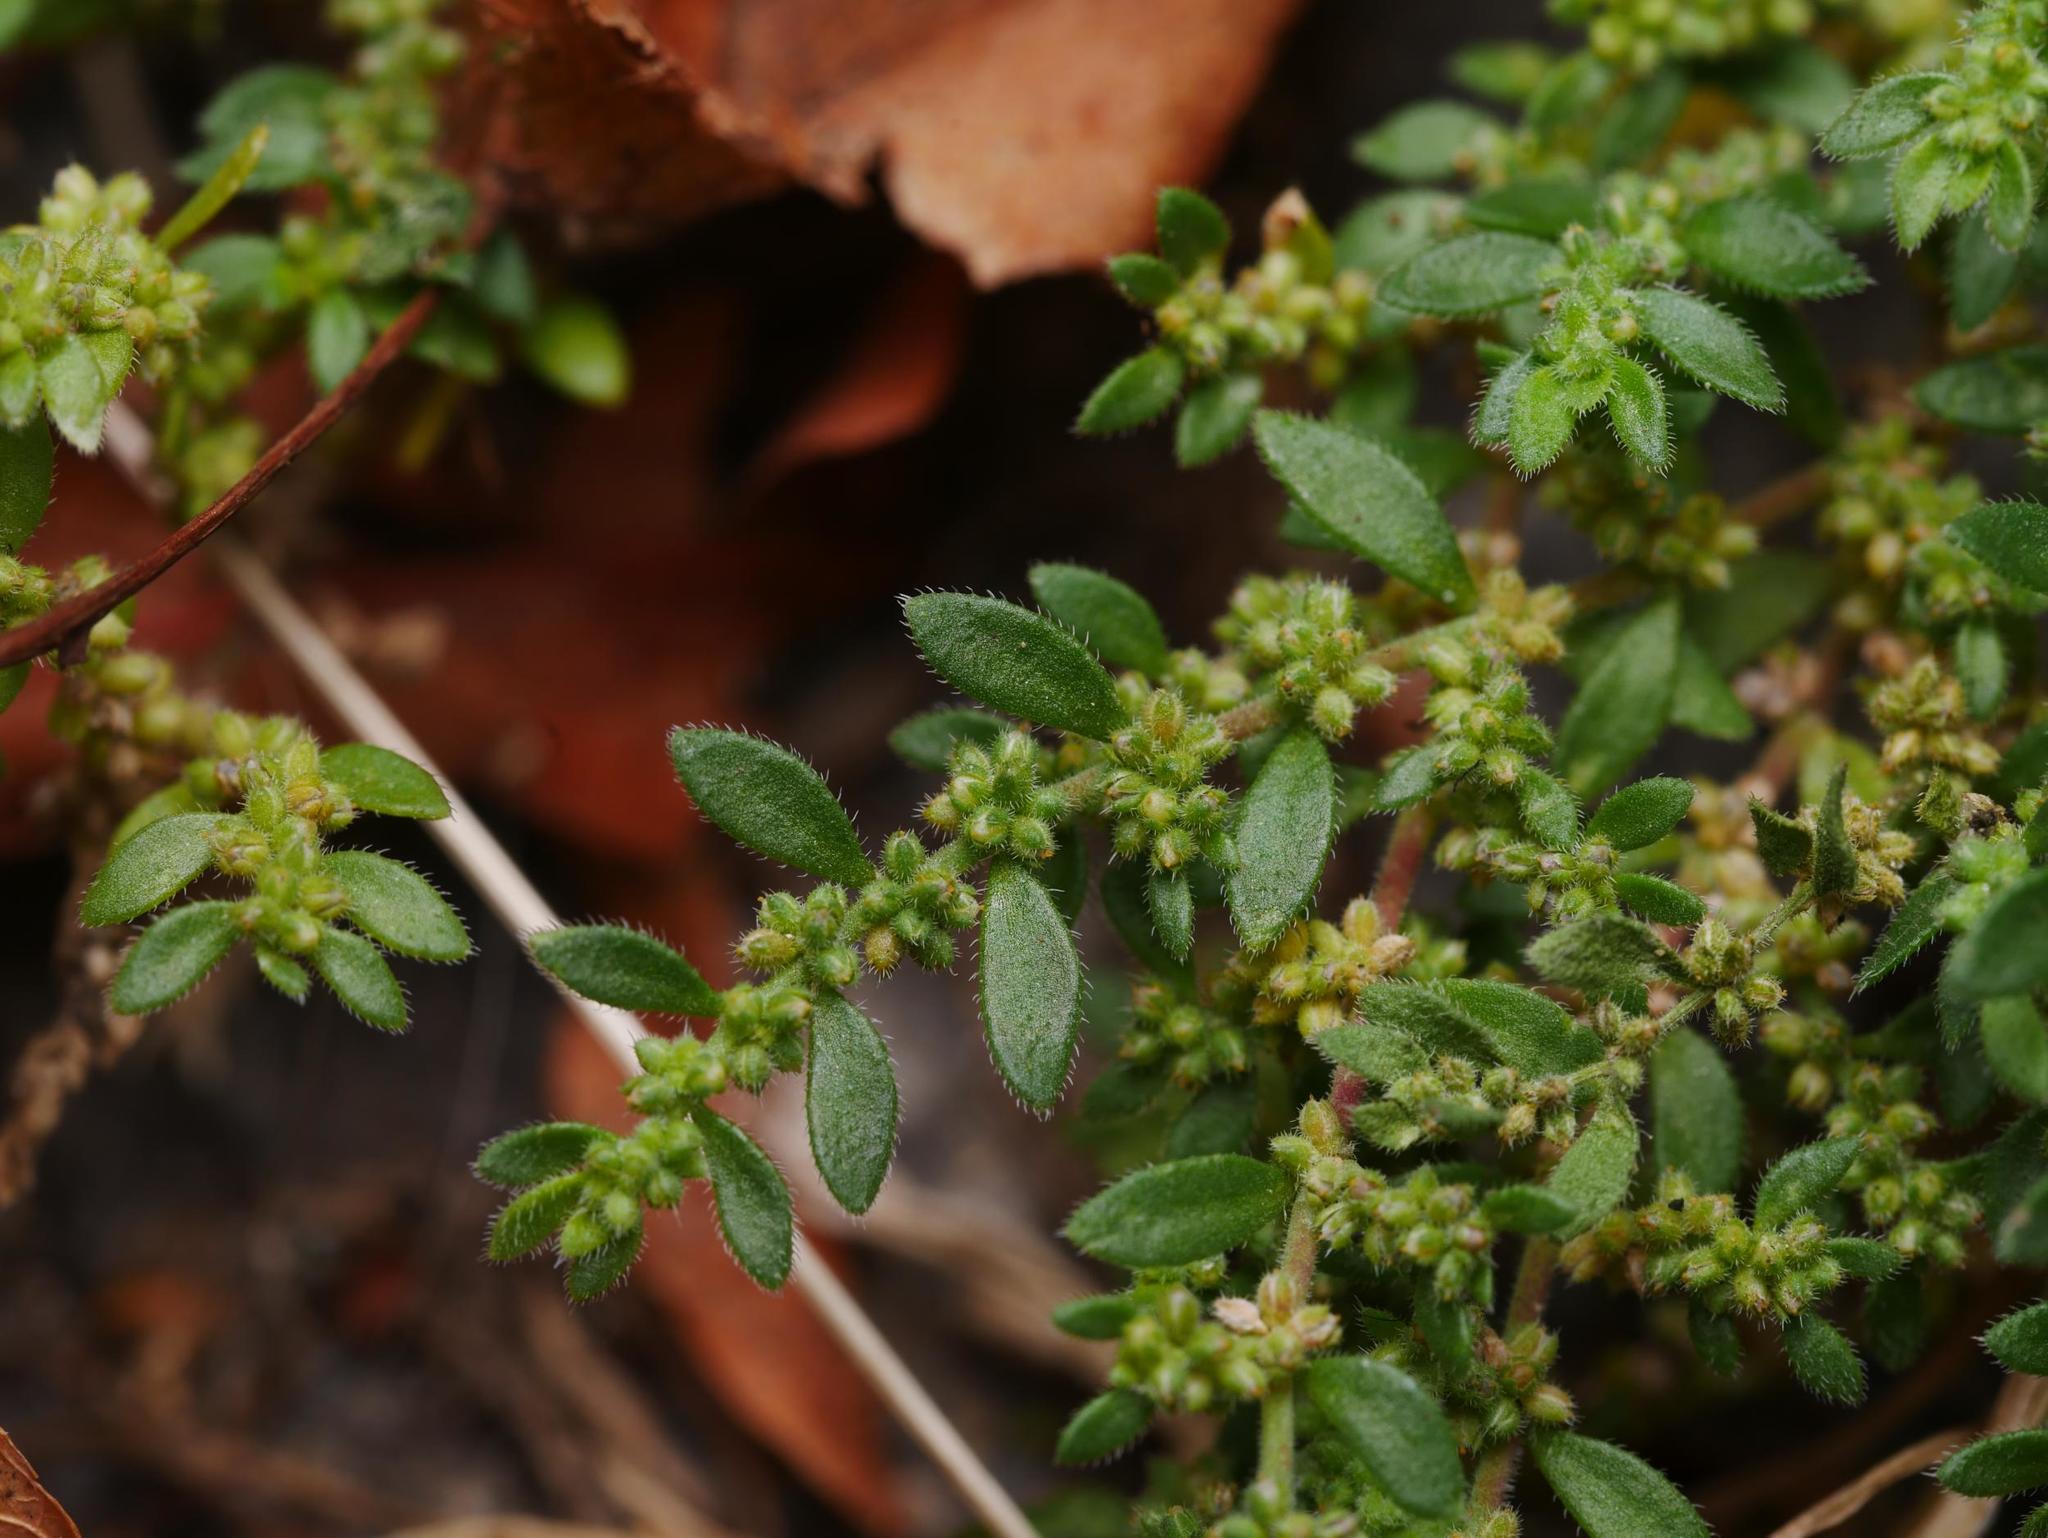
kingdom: Plantae
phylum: Tracheophyta
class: Magnoliopsida
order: Caryophyllales
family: Caryophyllaceae
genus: Herniaria
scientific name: Herniaria hirsuta
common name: Hairy rupturewort
